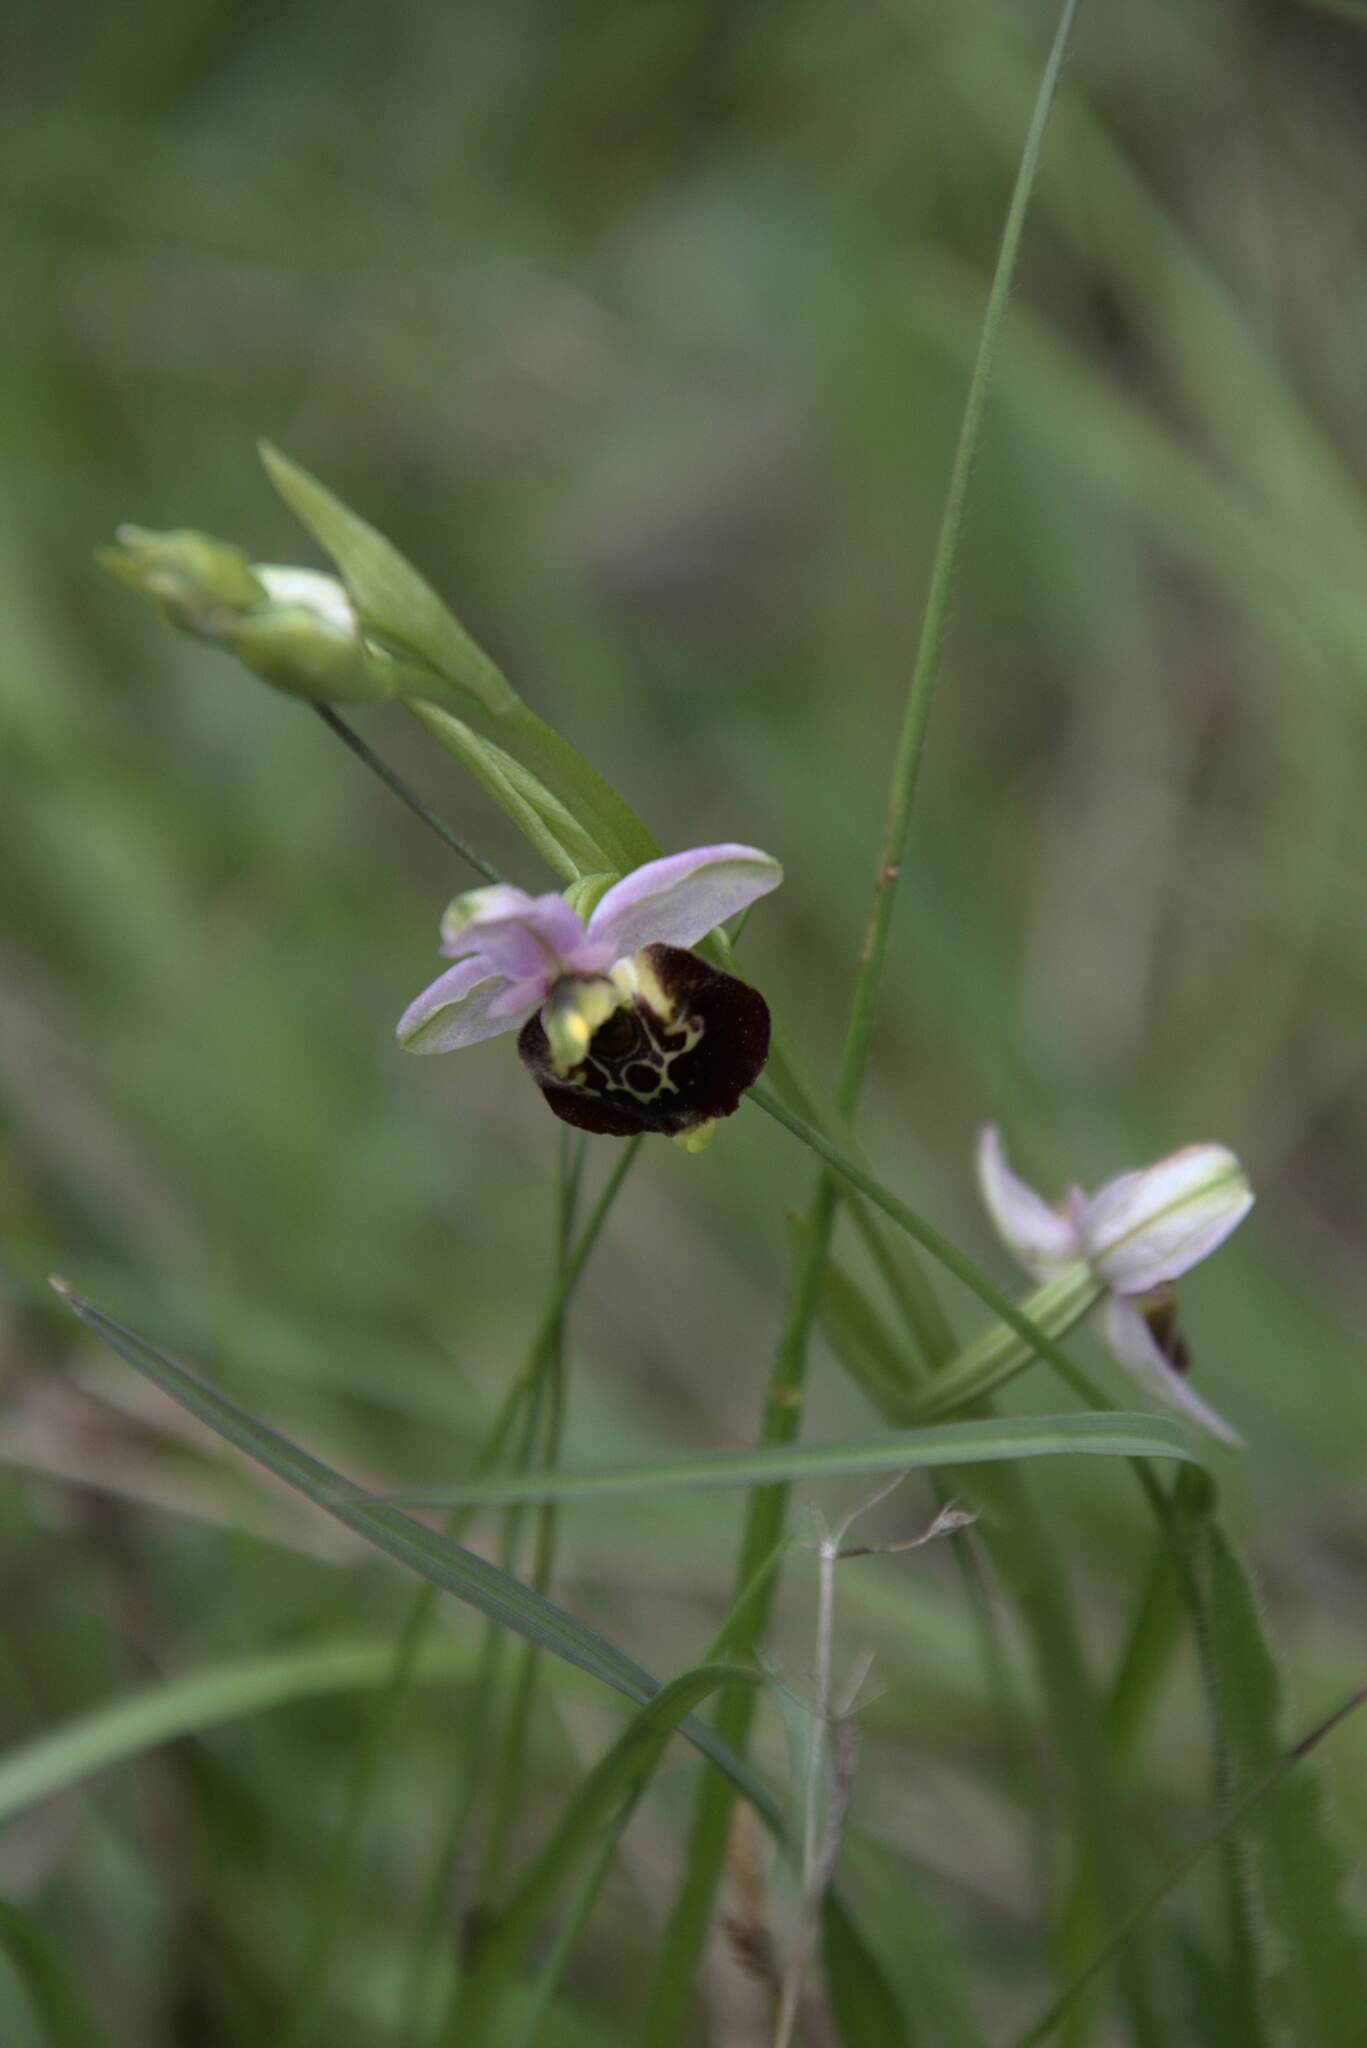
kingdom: Plantae
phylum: Tracheophyta
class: Liliopsida
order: Asparagales
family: Orchidaceae
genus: Ophrys
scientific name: Ophrys holosericea
